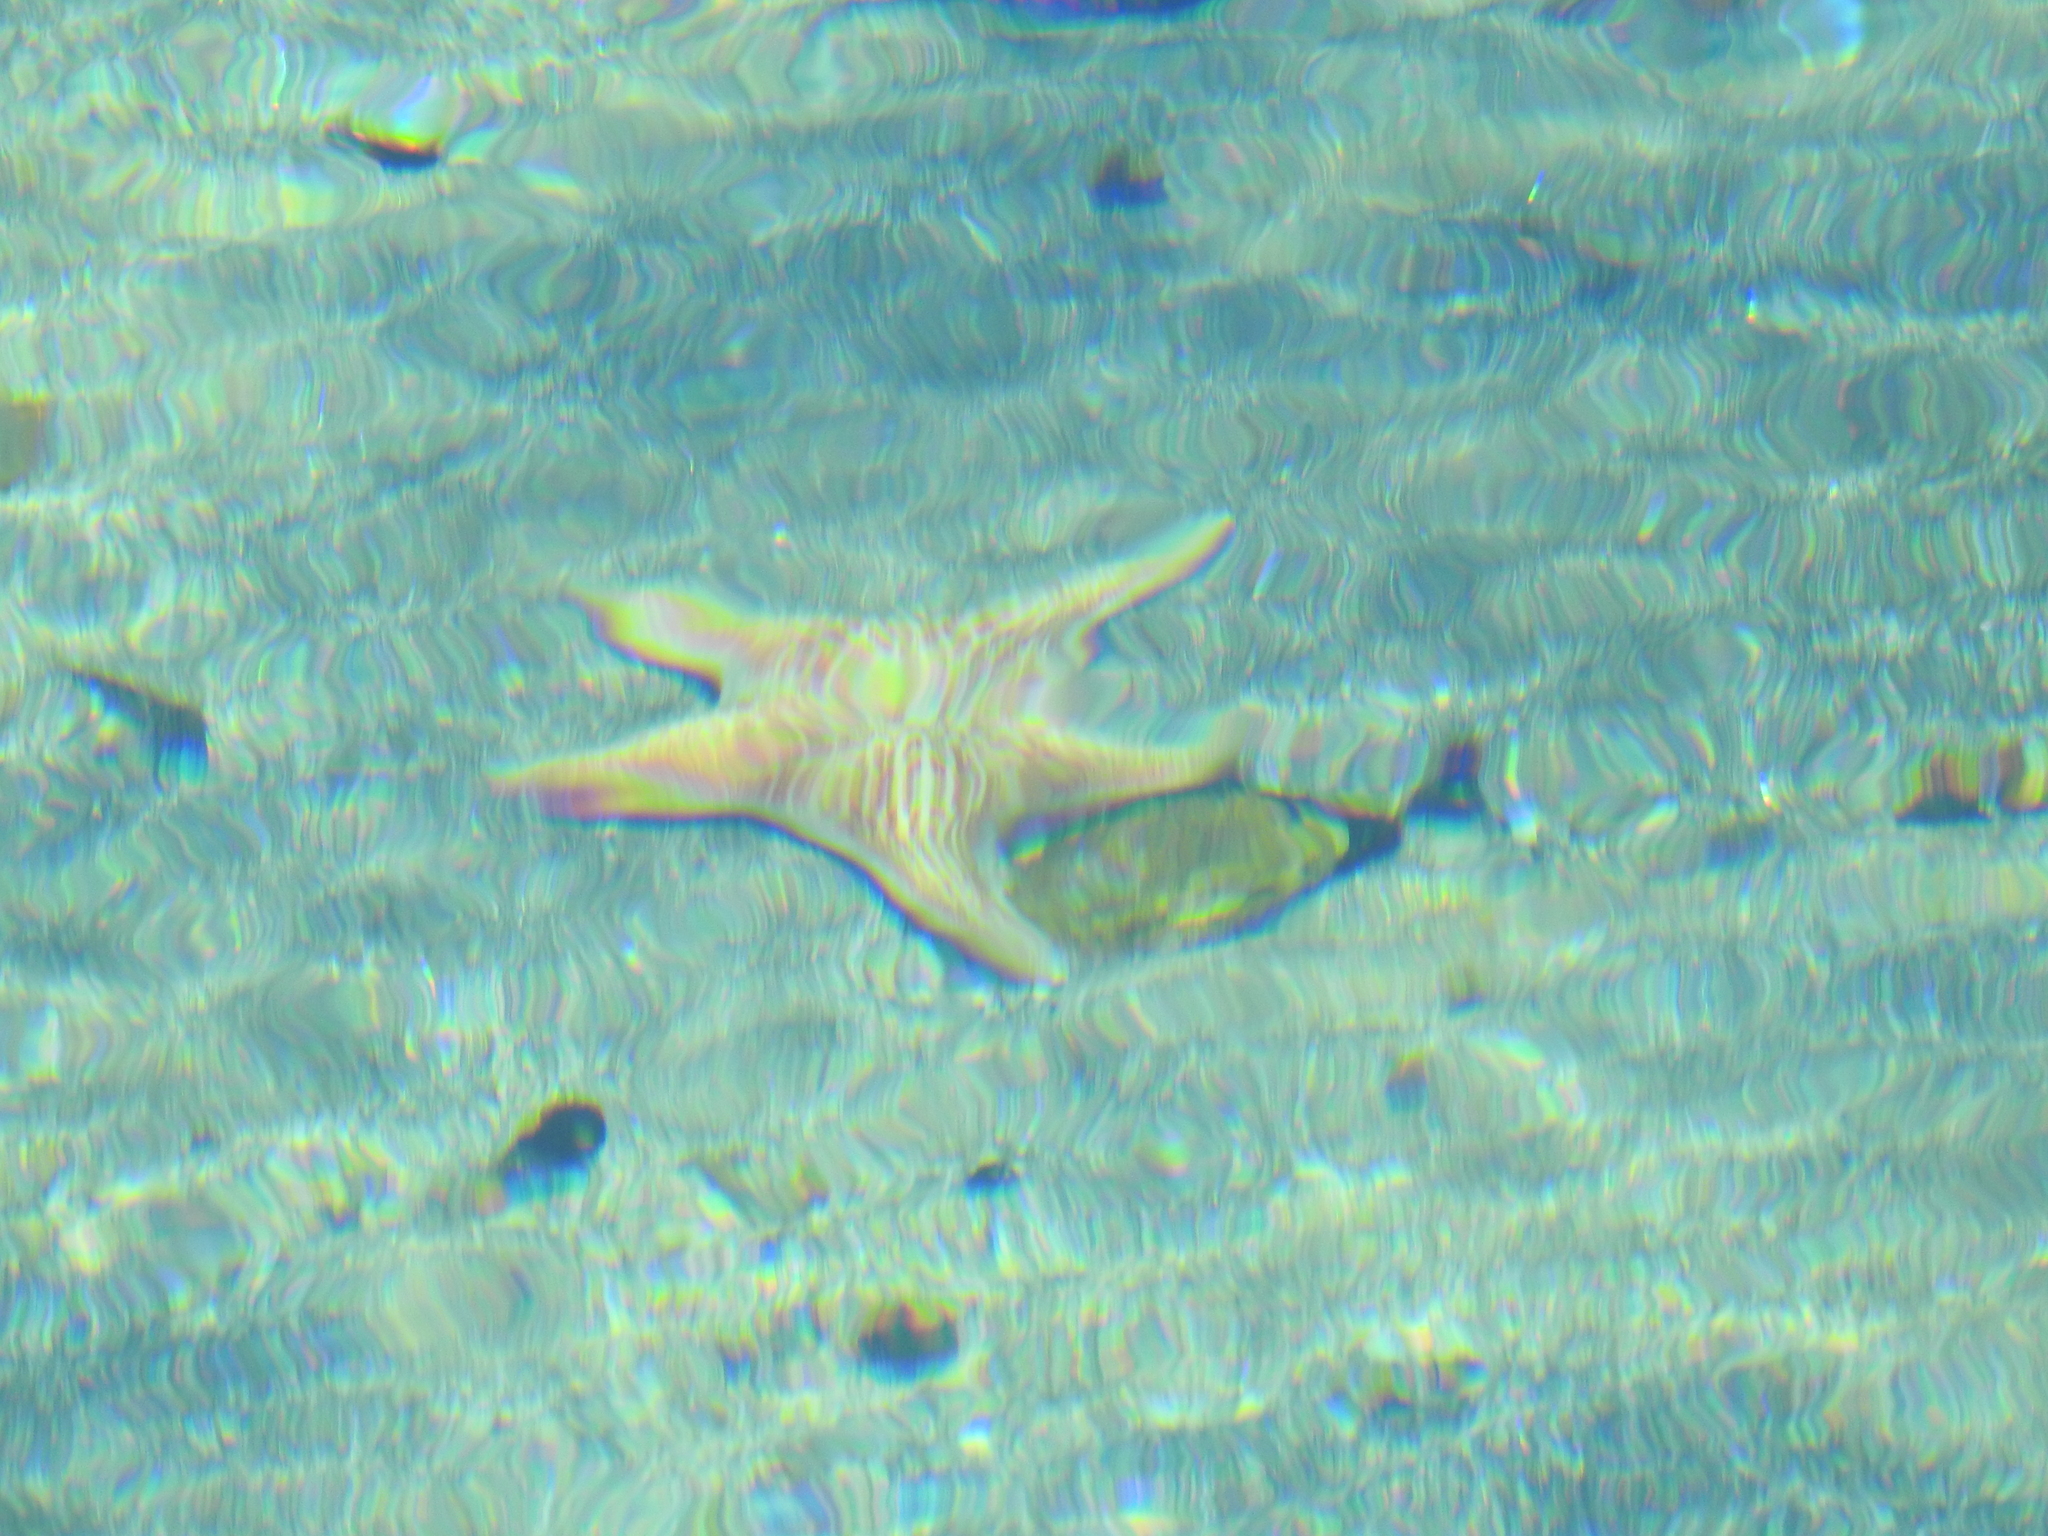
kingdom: Animalia
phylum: Echinodermata
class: Asteroidea
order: Valvatida
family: Asteropseidae
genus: Dermasterias
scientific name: Dermasterias imbricata
